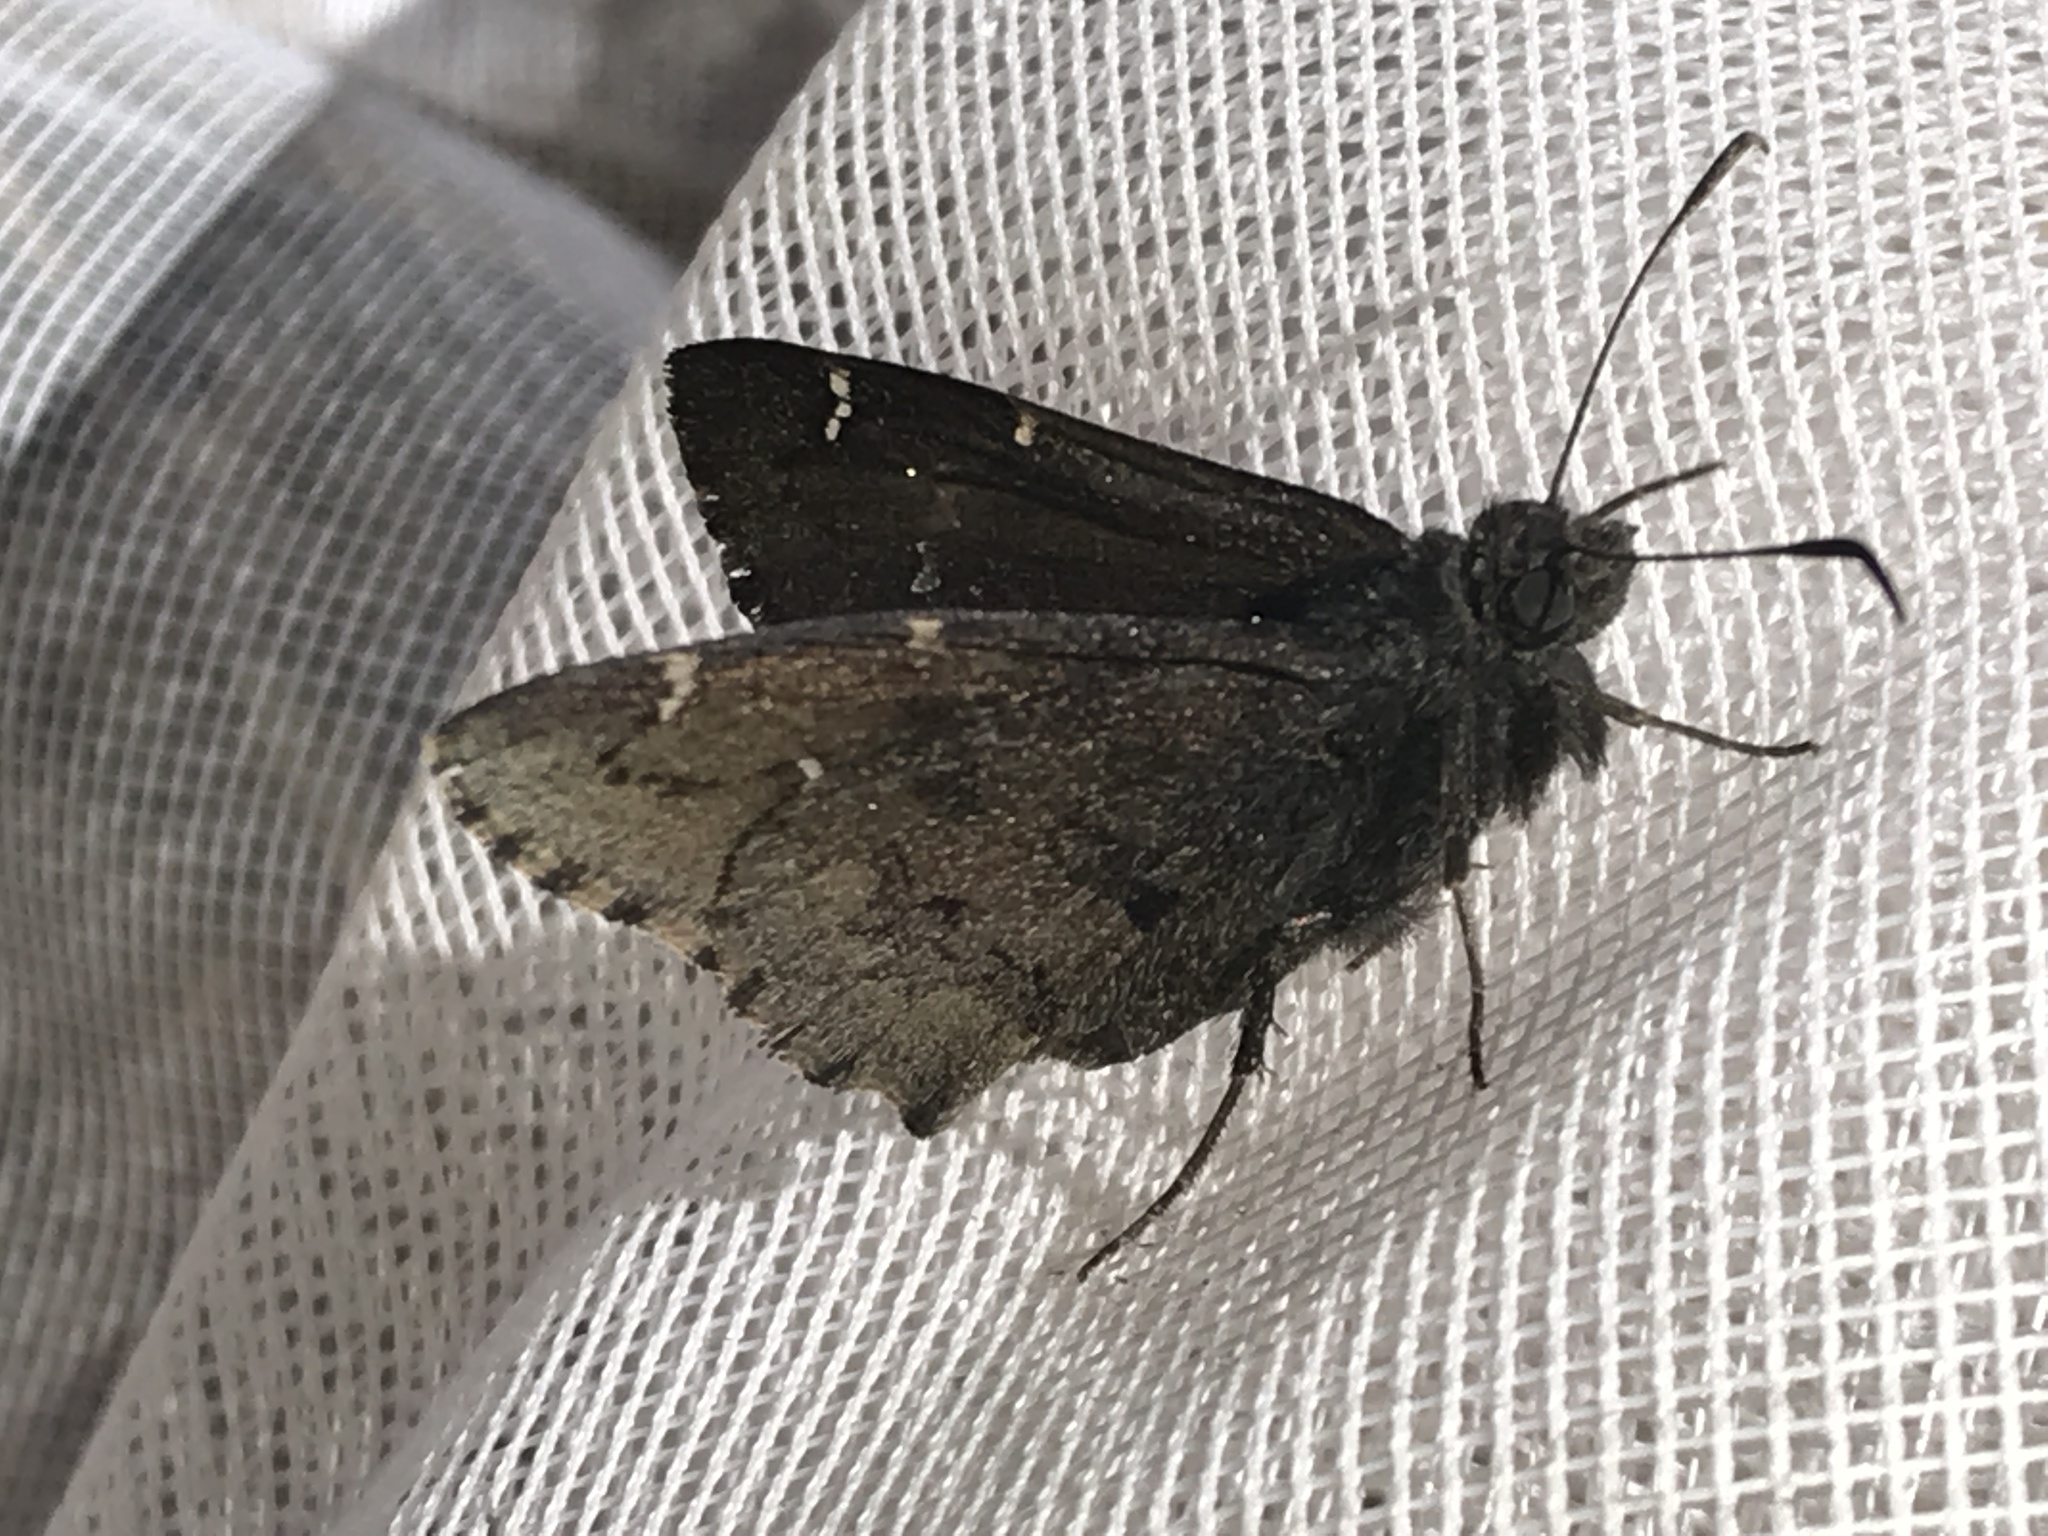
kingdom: Animalia
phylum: Arthropoda
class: Insecta
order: Lepidoptera
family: Hesperiidae
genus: Thorybes
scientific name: Thorybes pylades
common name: Northern cloudywing
